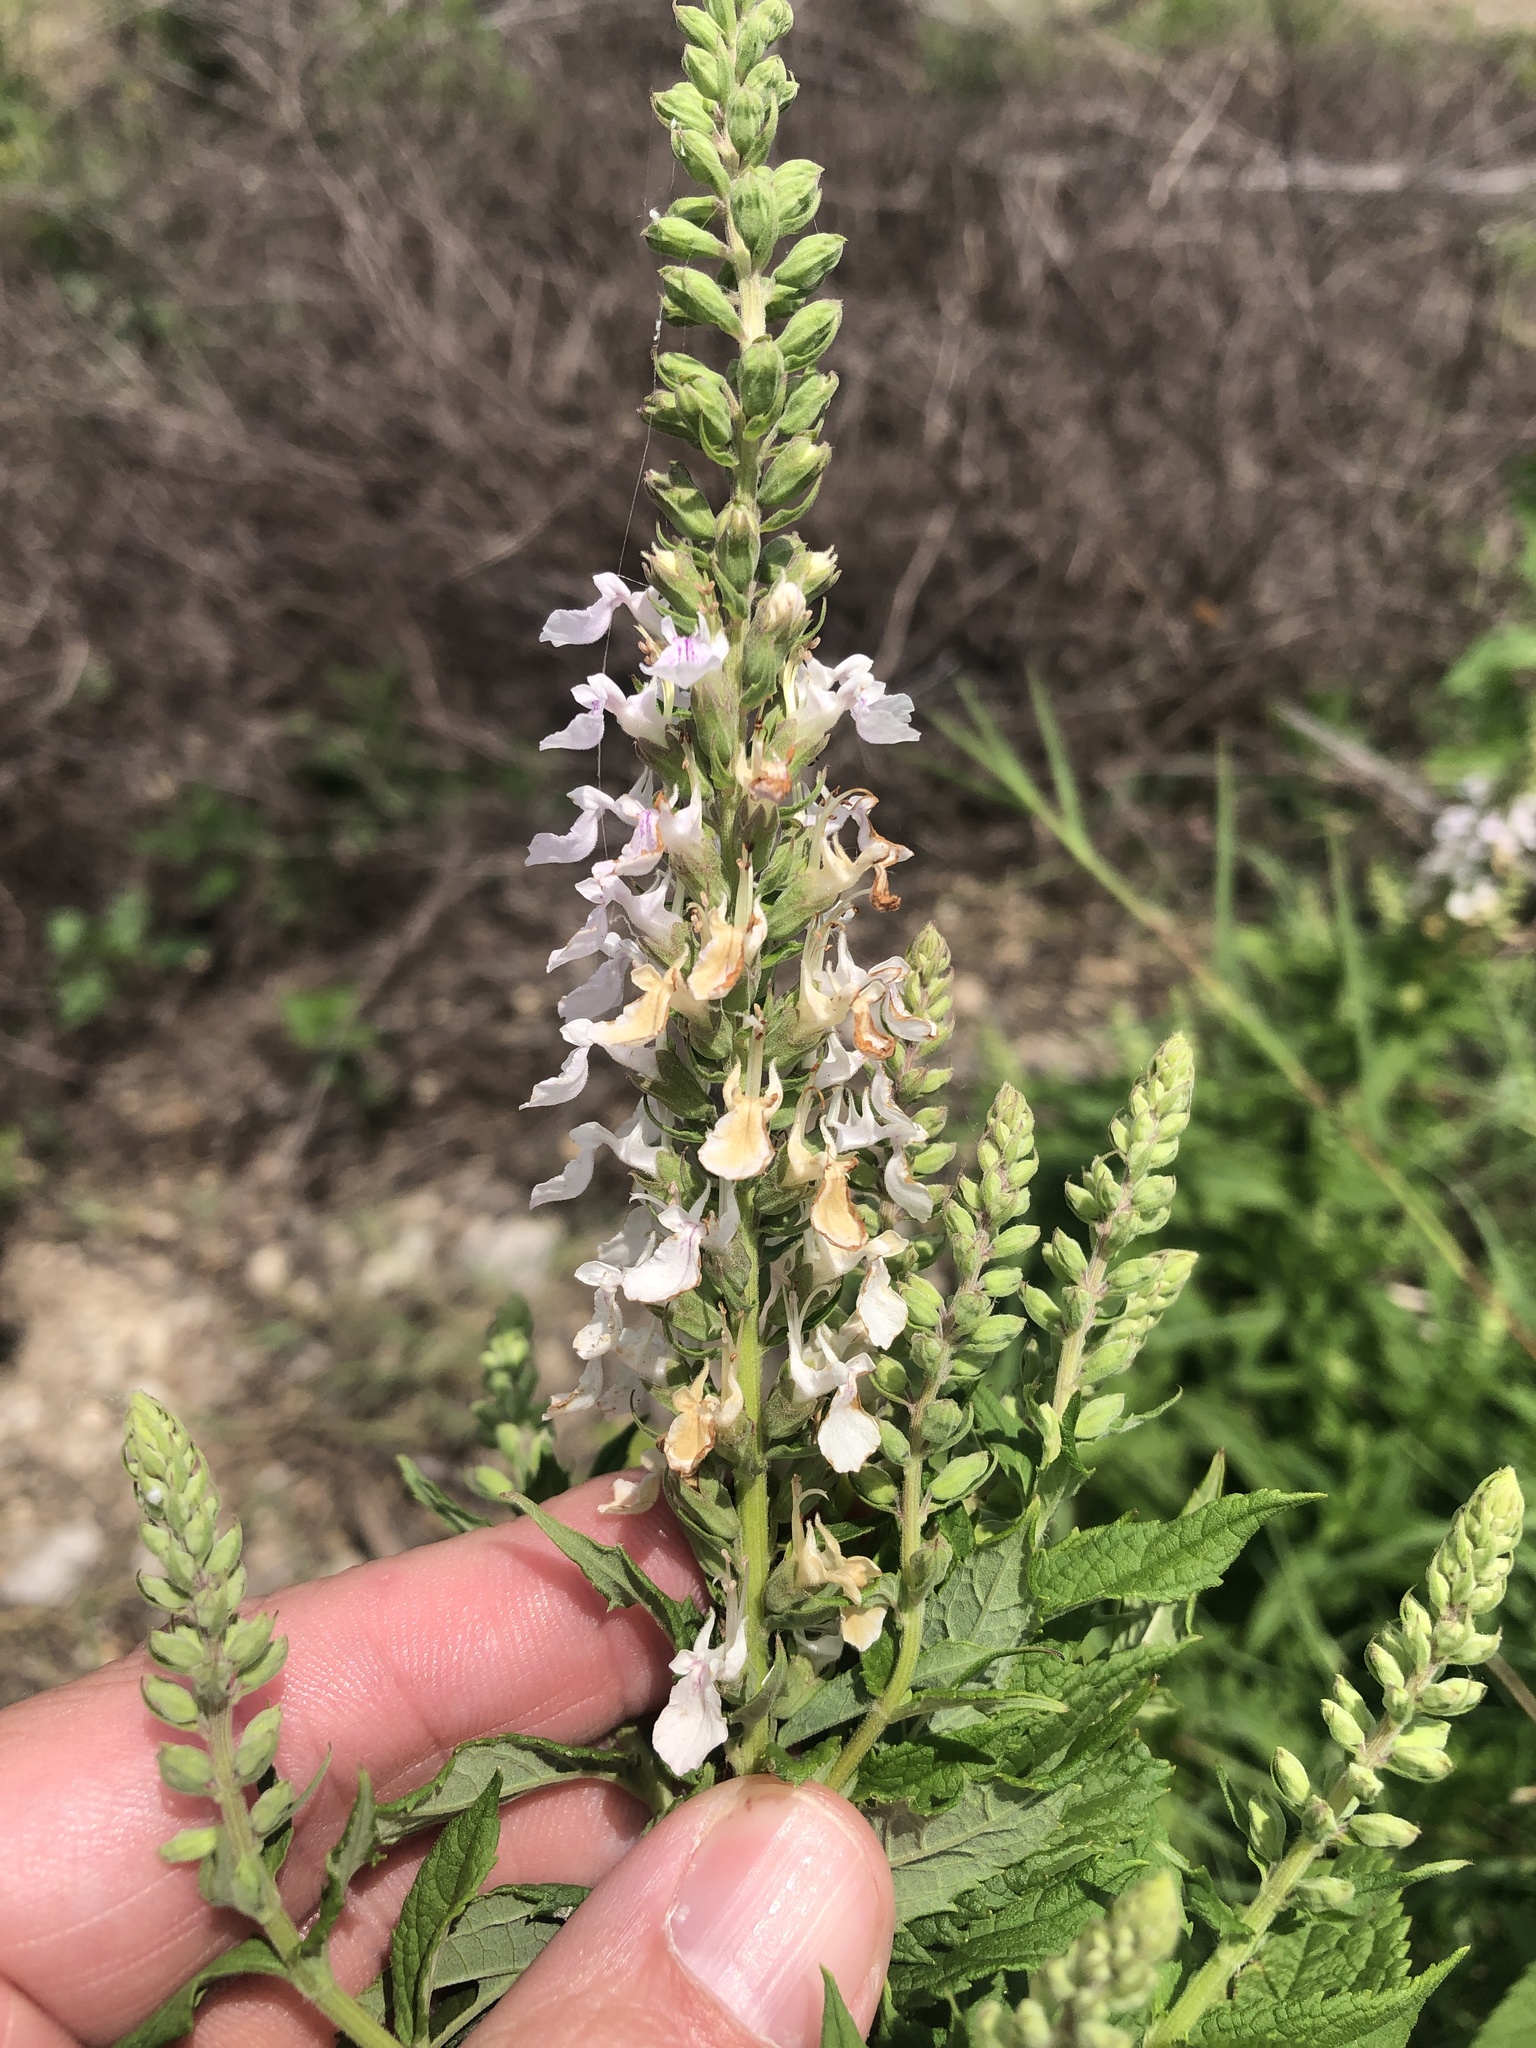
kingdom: Plantae
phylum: Tracheophyta
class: Magnoliopsida
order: Lamiales
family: Lamiaceae
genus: Teucrium
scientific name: Teucrium canadense
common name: American germander
